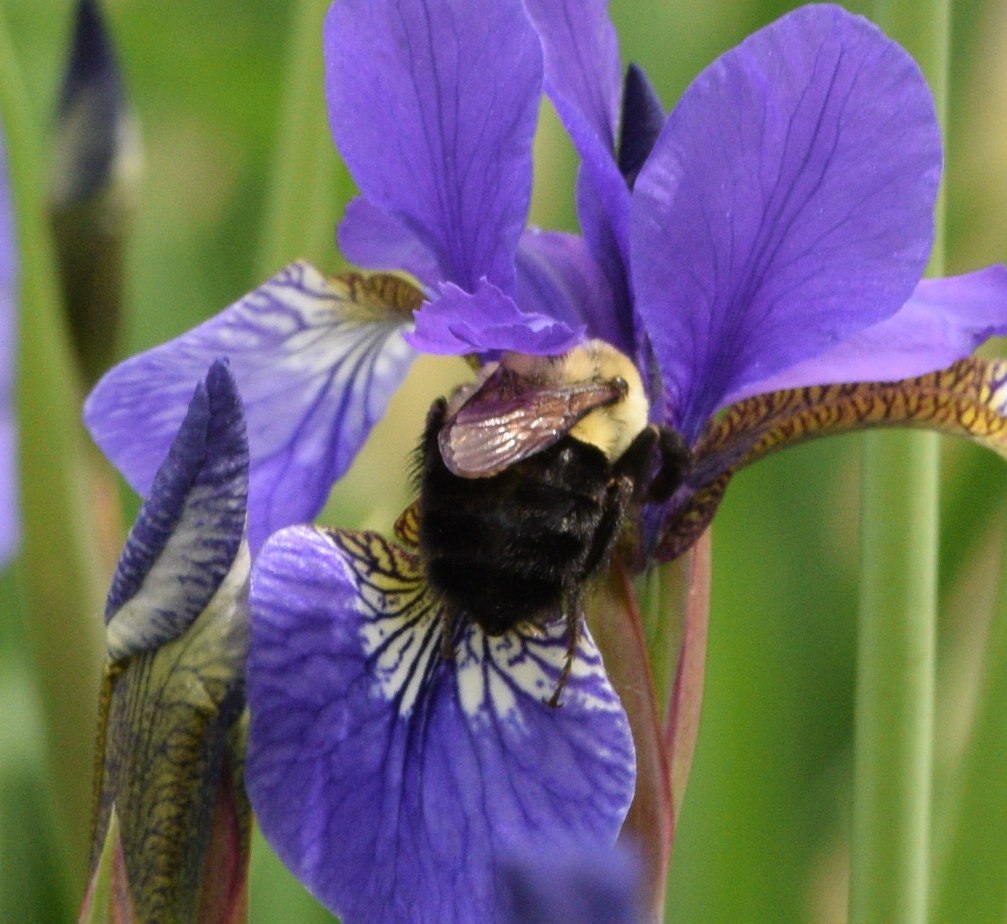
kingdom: Animalia
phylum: Arthropoda
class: Insecta
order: Hymenoptera
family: Apidae
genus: Bombus
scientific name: Bombus impatiens
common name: Common eastern bumble bee
